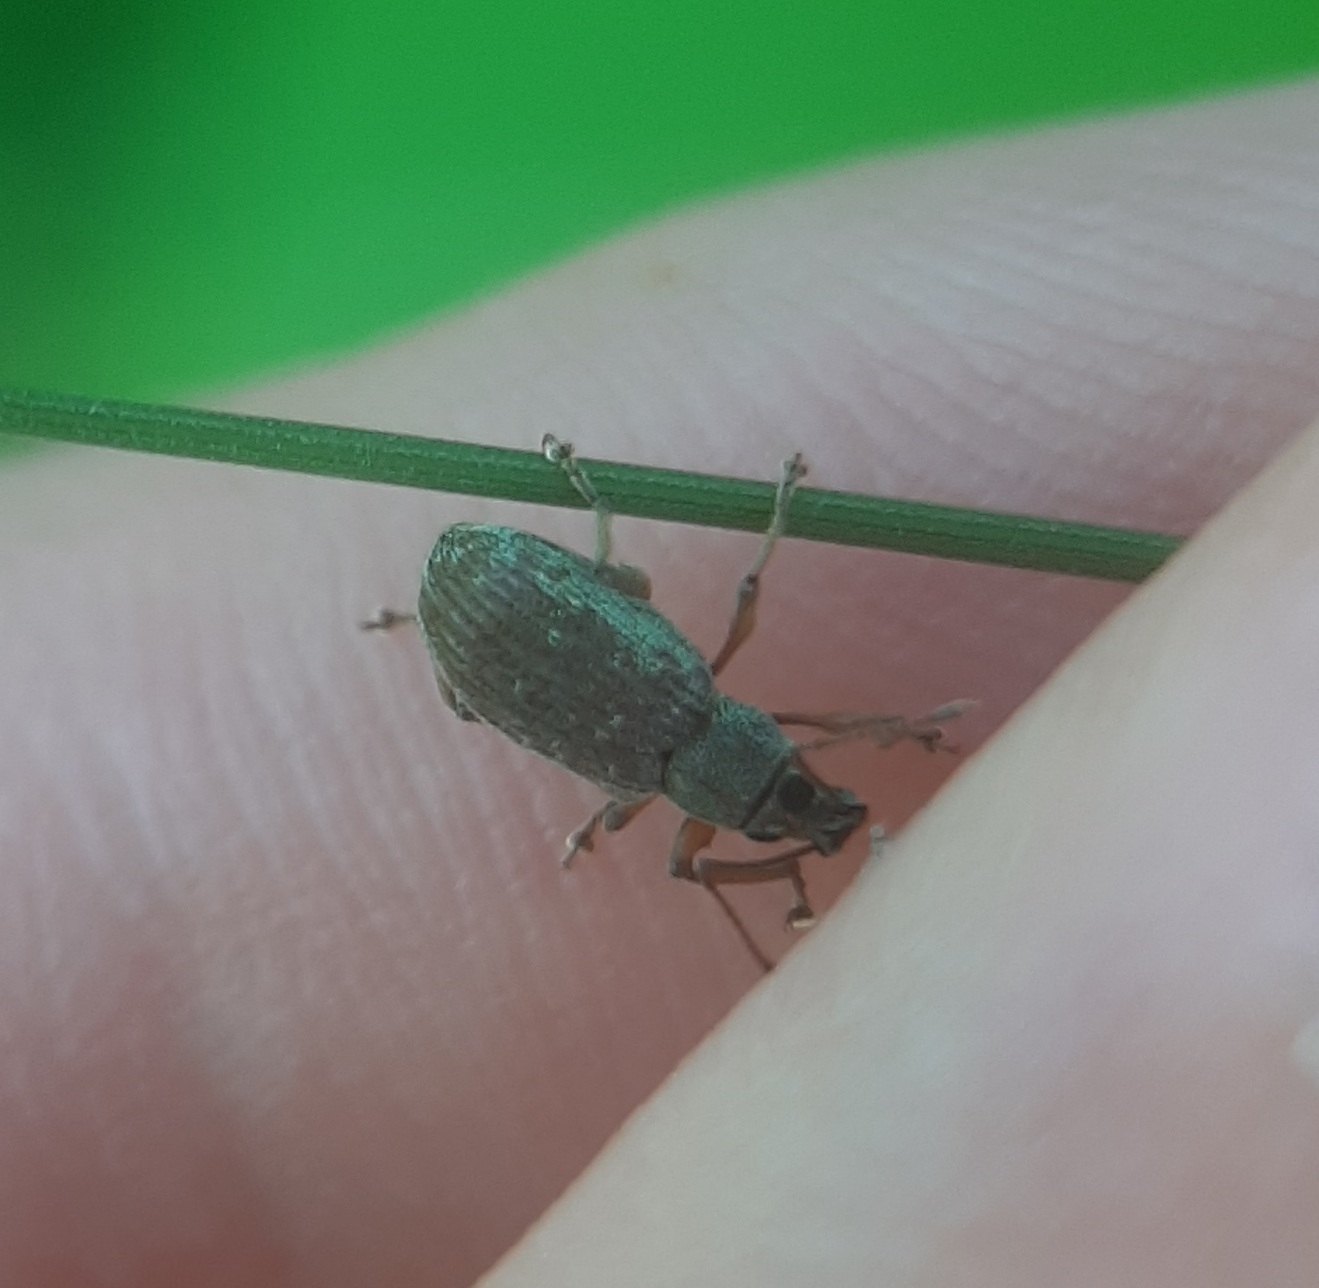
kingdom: Animalia
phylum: Arthropoda
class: Insecta
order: Coleoptera
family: Curculionidae
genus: Cyrtepistomus
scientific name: Cyrtepistomus castaneus
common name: Weevil
